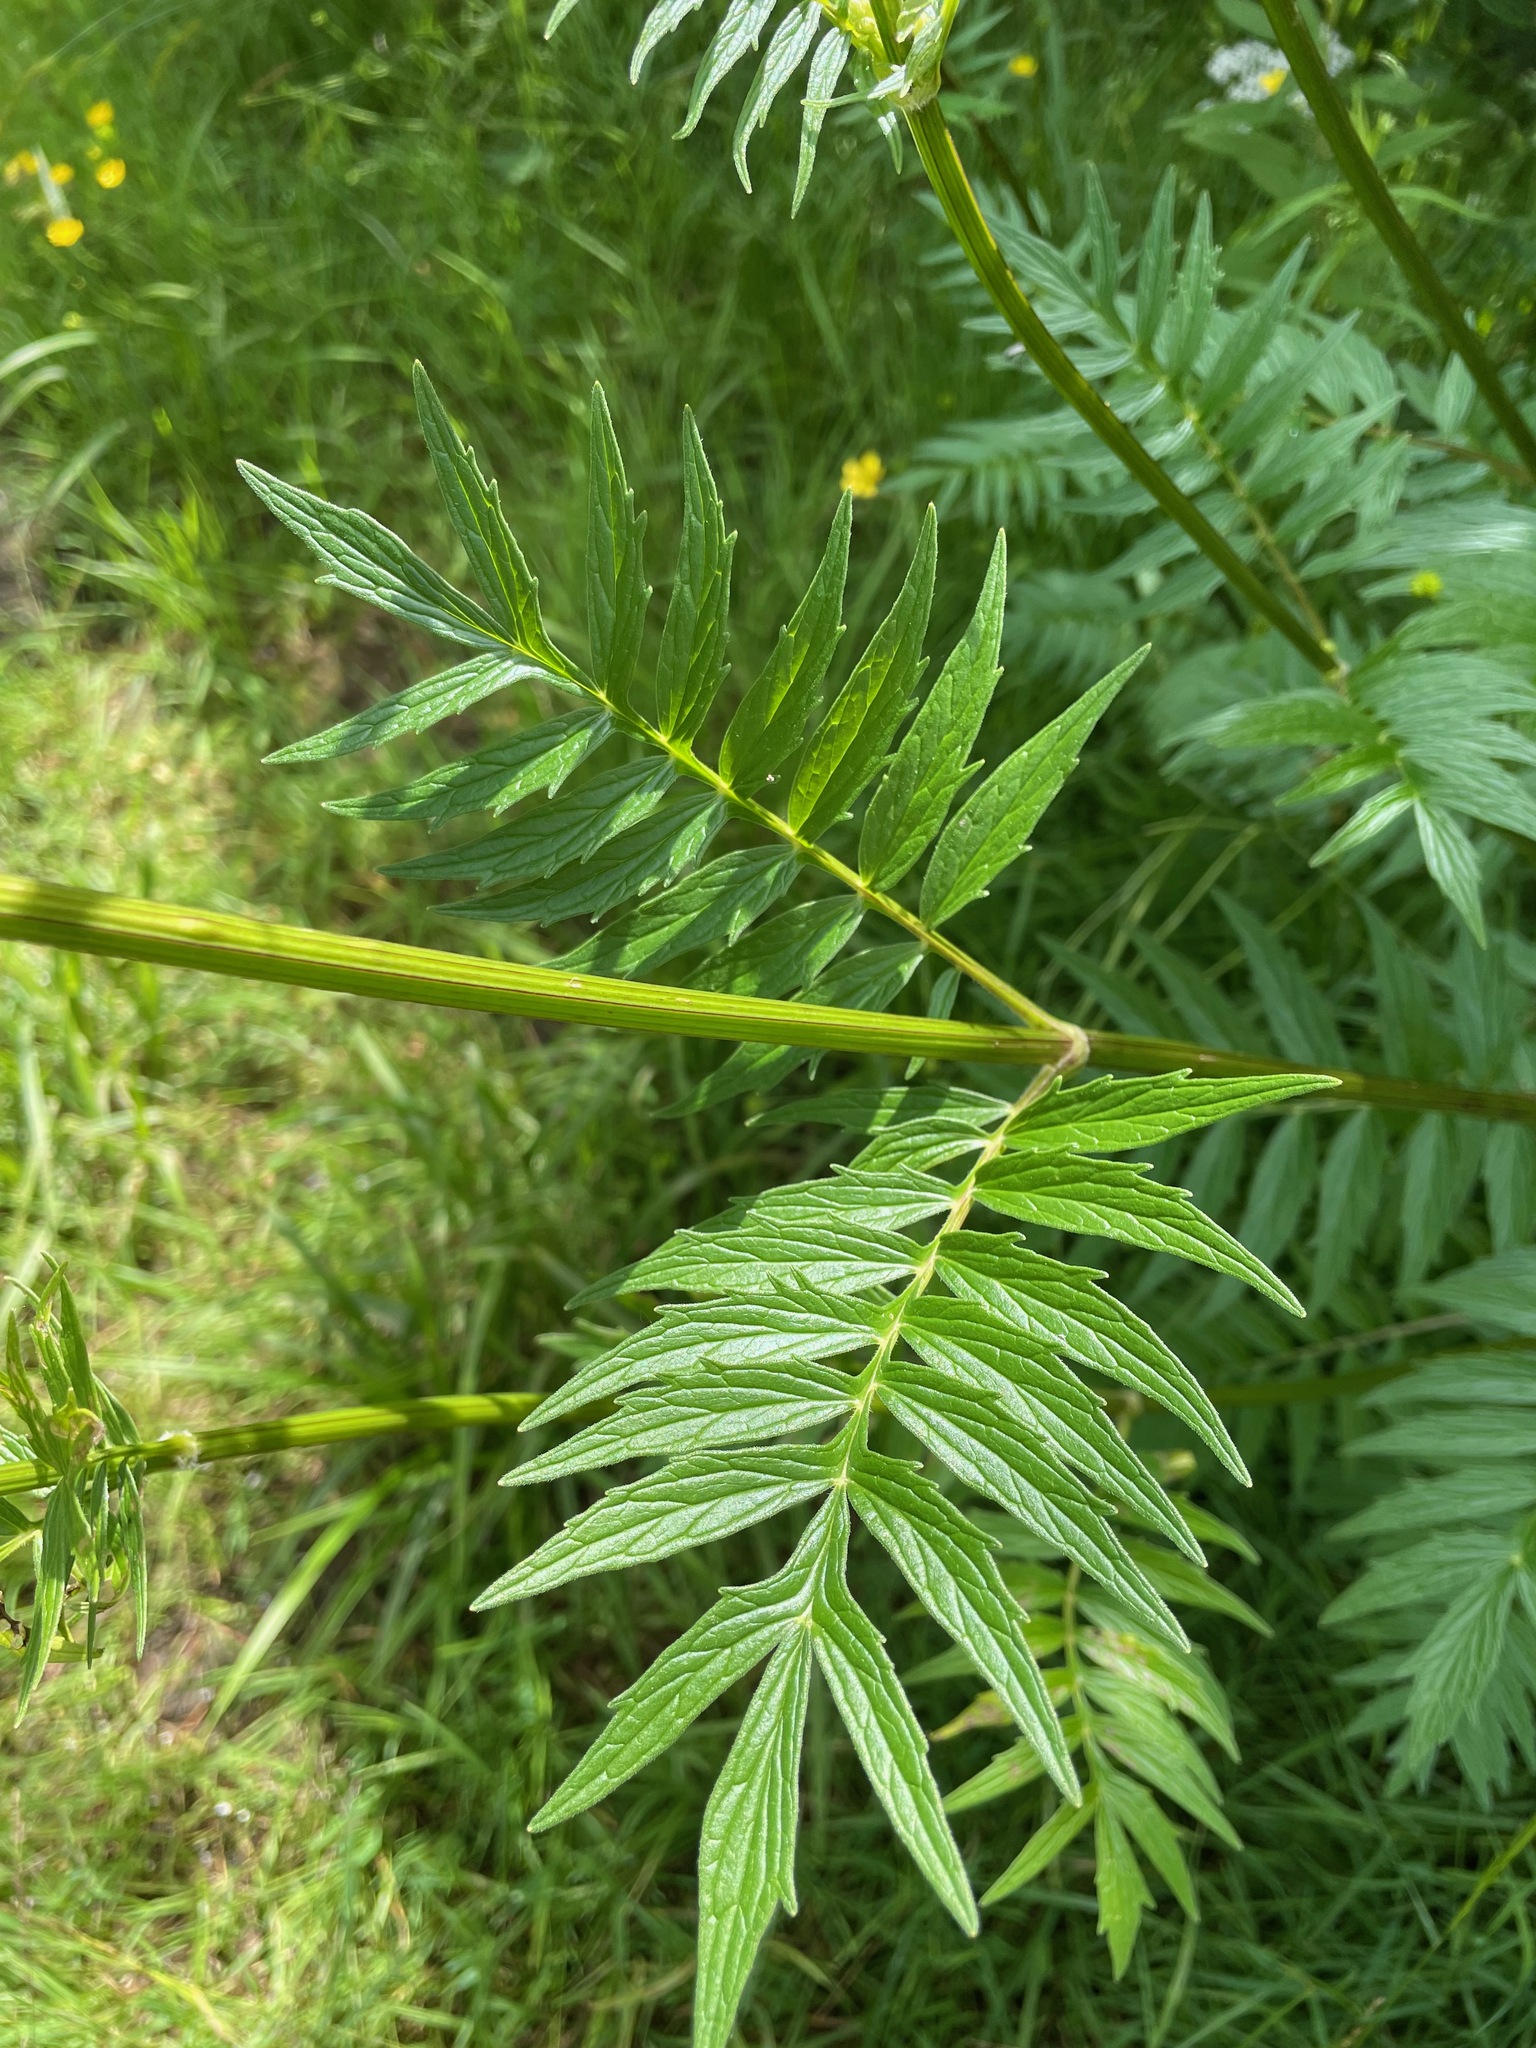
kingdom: Plantae
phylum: Tracheophyta
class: Magnoliopsida
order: Dipsacales
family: Caprifoliaceae
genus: Valeriana
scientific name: Valeriana officinalis
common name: Common valerian
